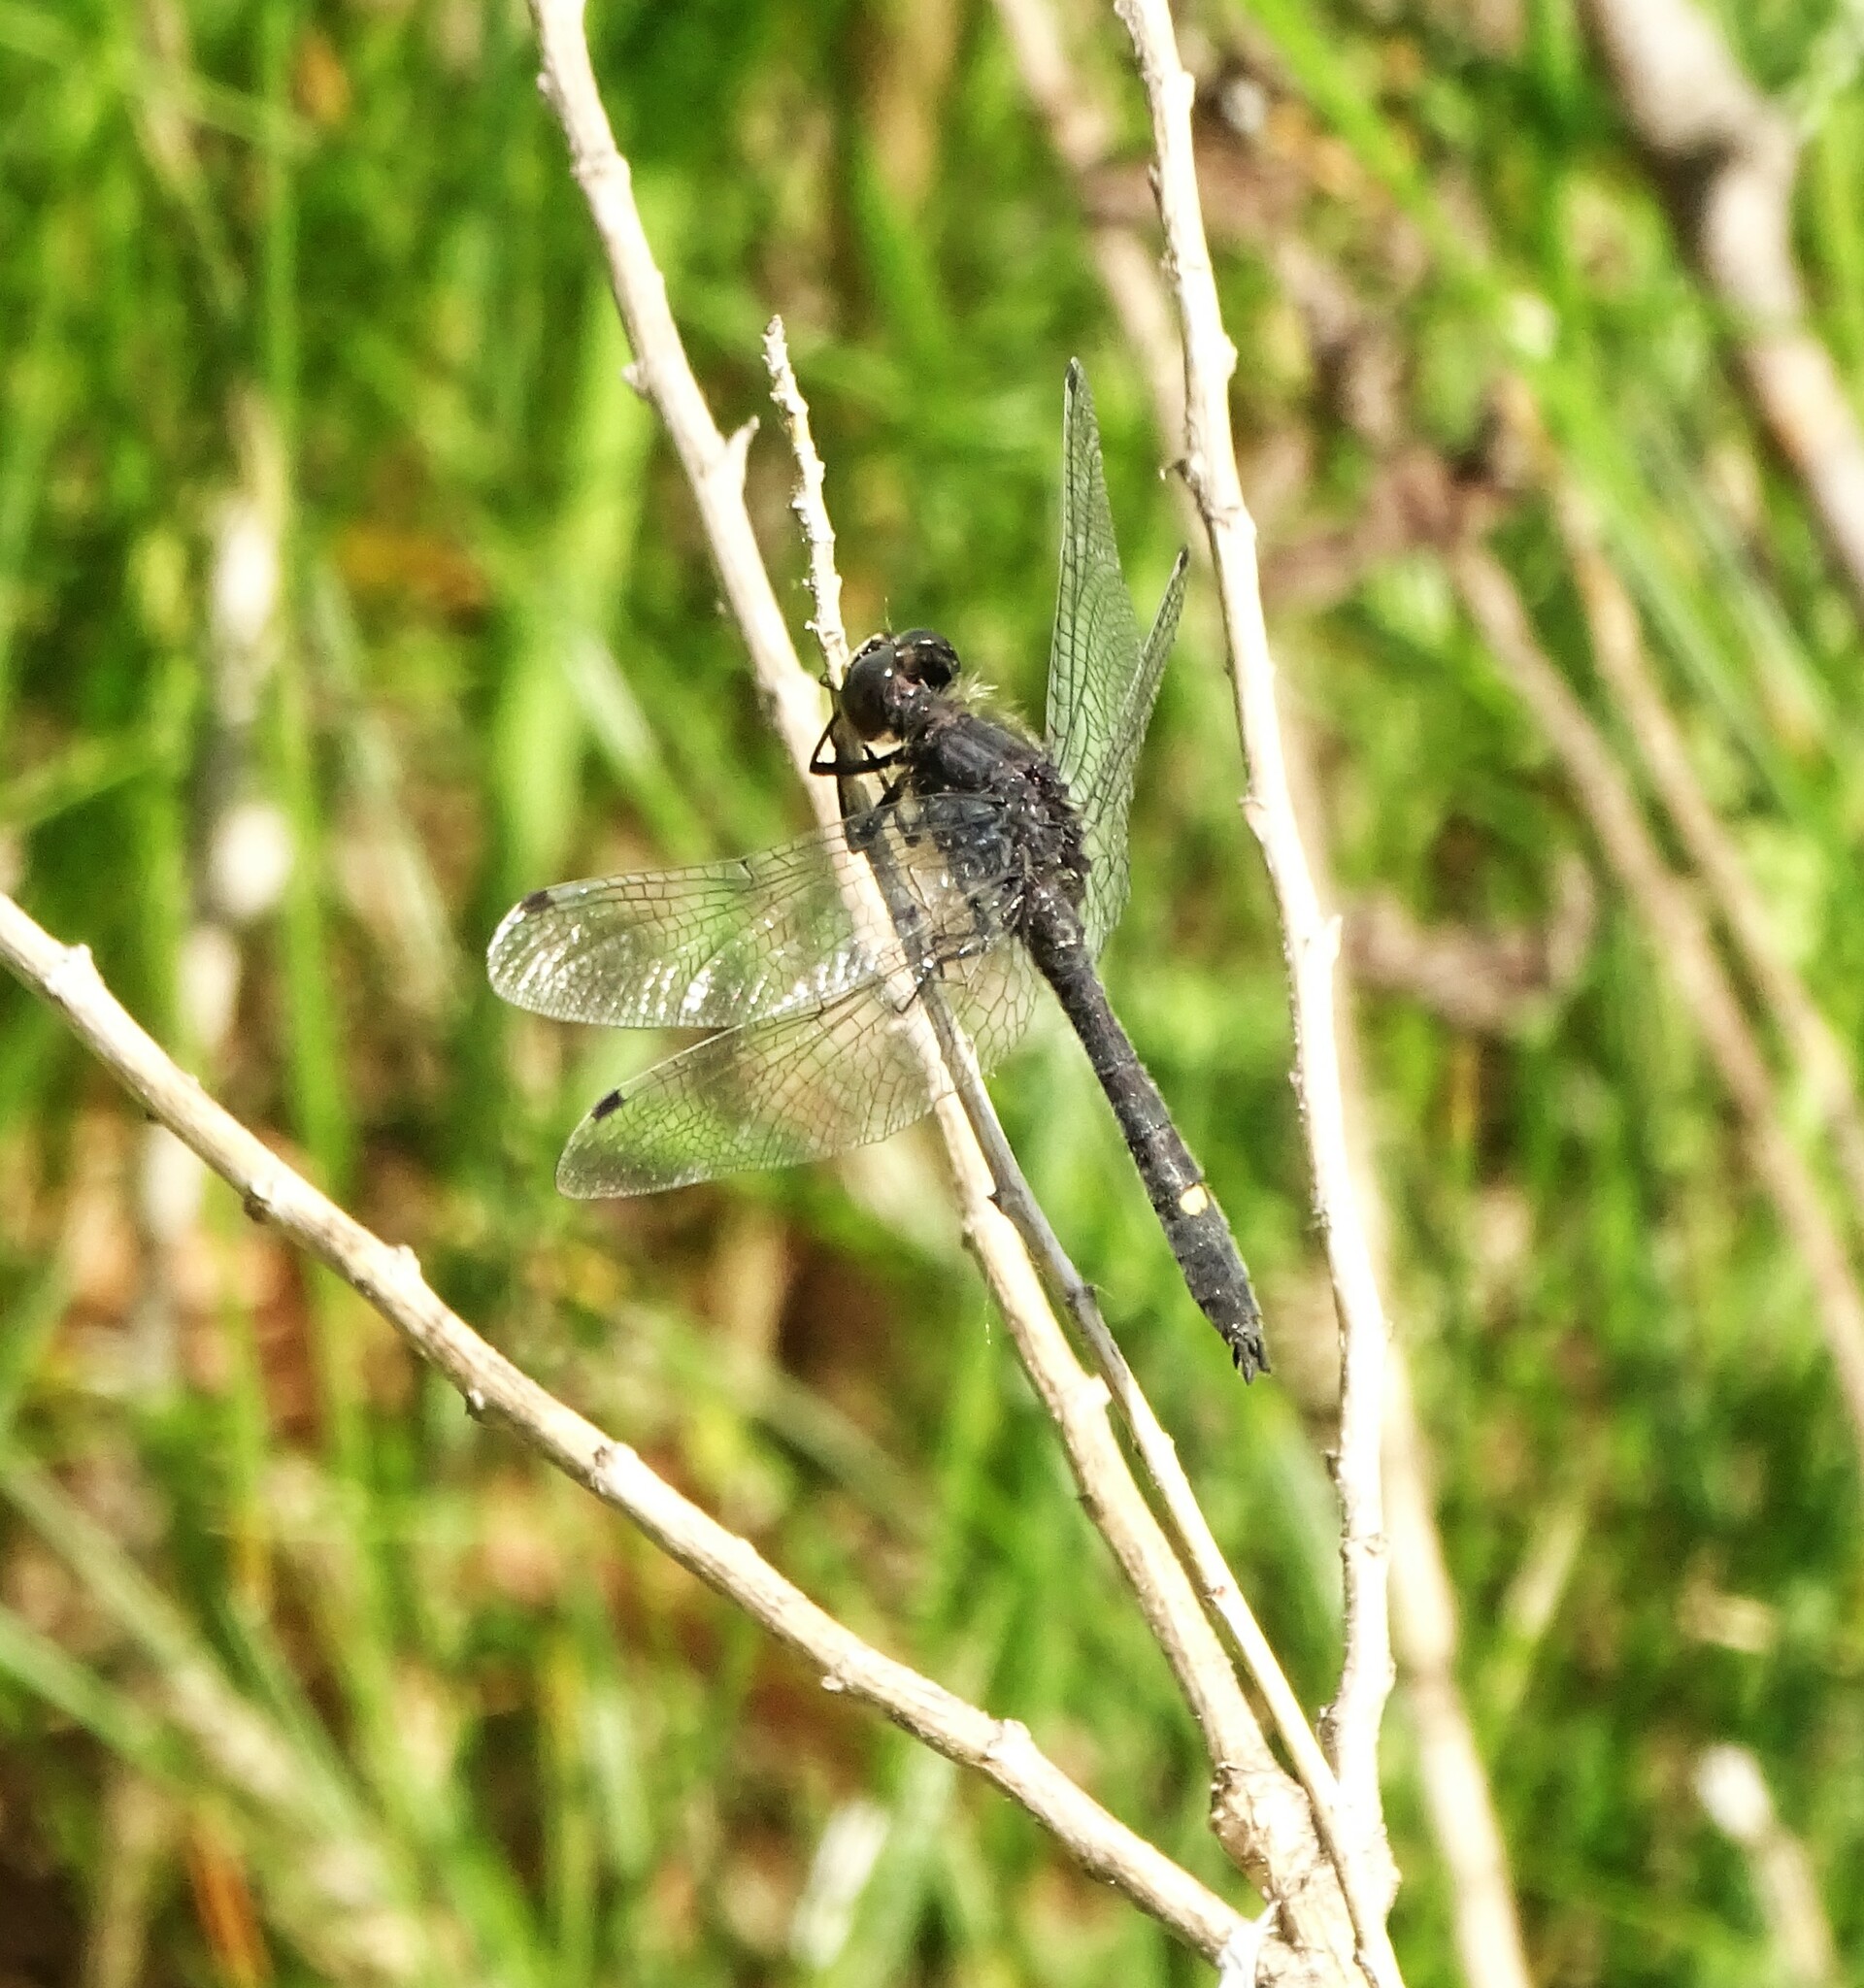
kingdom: Animalia
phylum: Arthropoda
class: Insecta
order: Odonata
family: Libellulidae
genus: Leucorrhinia
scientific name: Leucorrhinia intacta
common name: Dot-tailed whiteface
